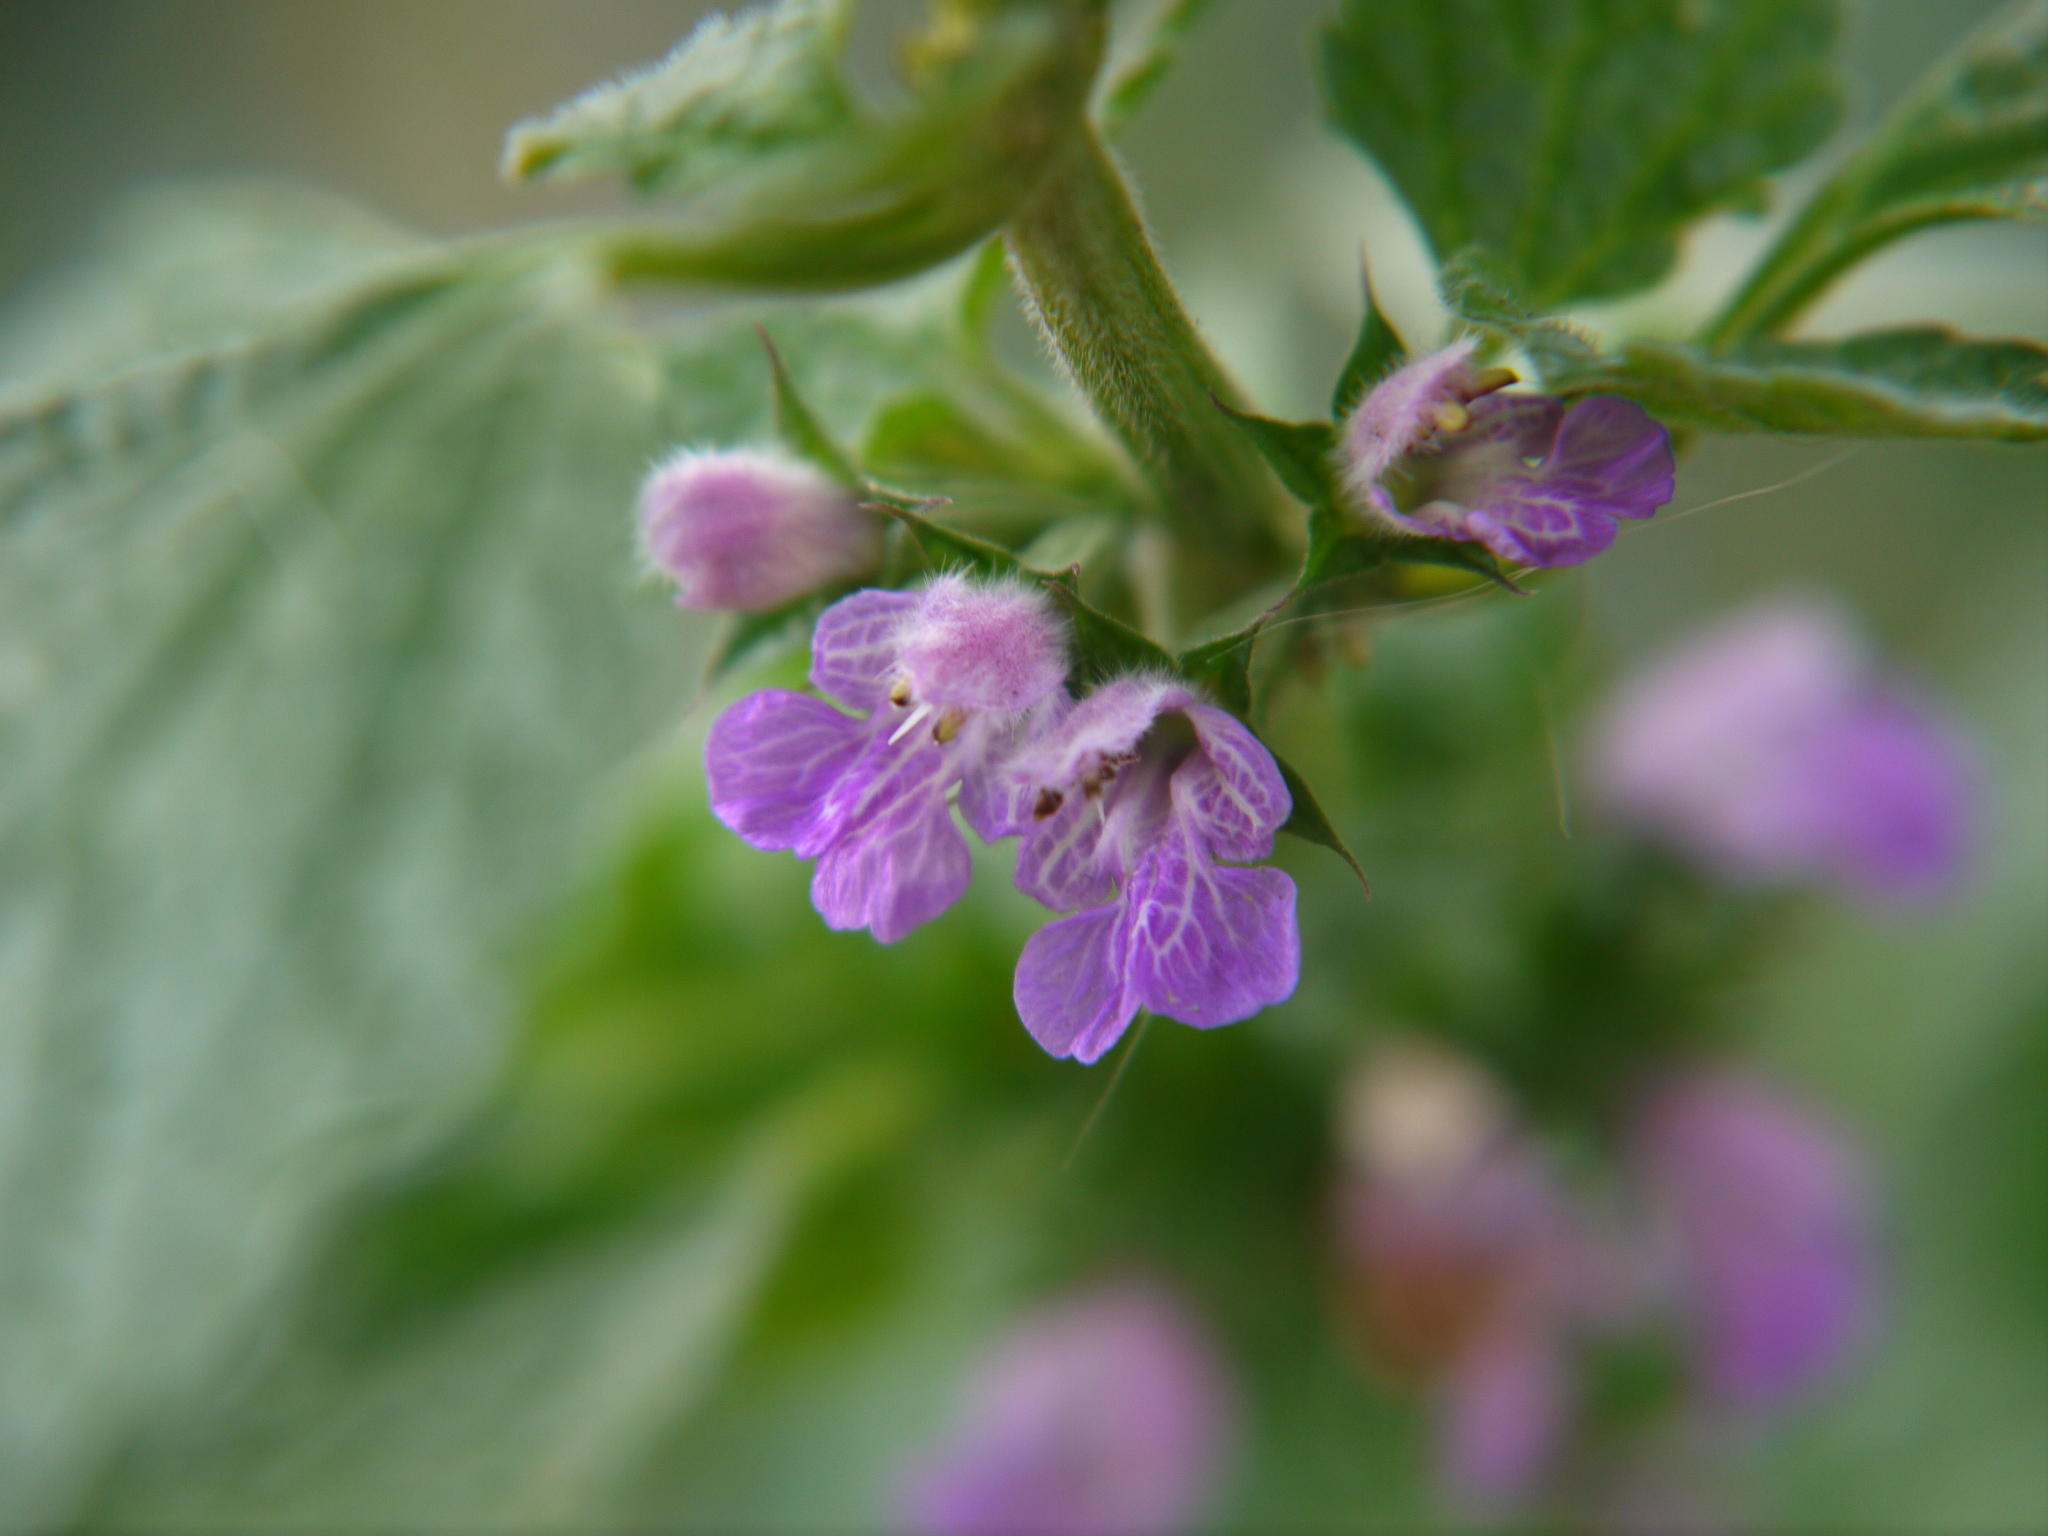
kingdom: Plantae
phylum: Tracheophyta
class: Magnoliopsida
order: Lamiales
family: Lamiaceae
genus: Ballota
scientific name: Ballota nigra
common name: Black horehound
